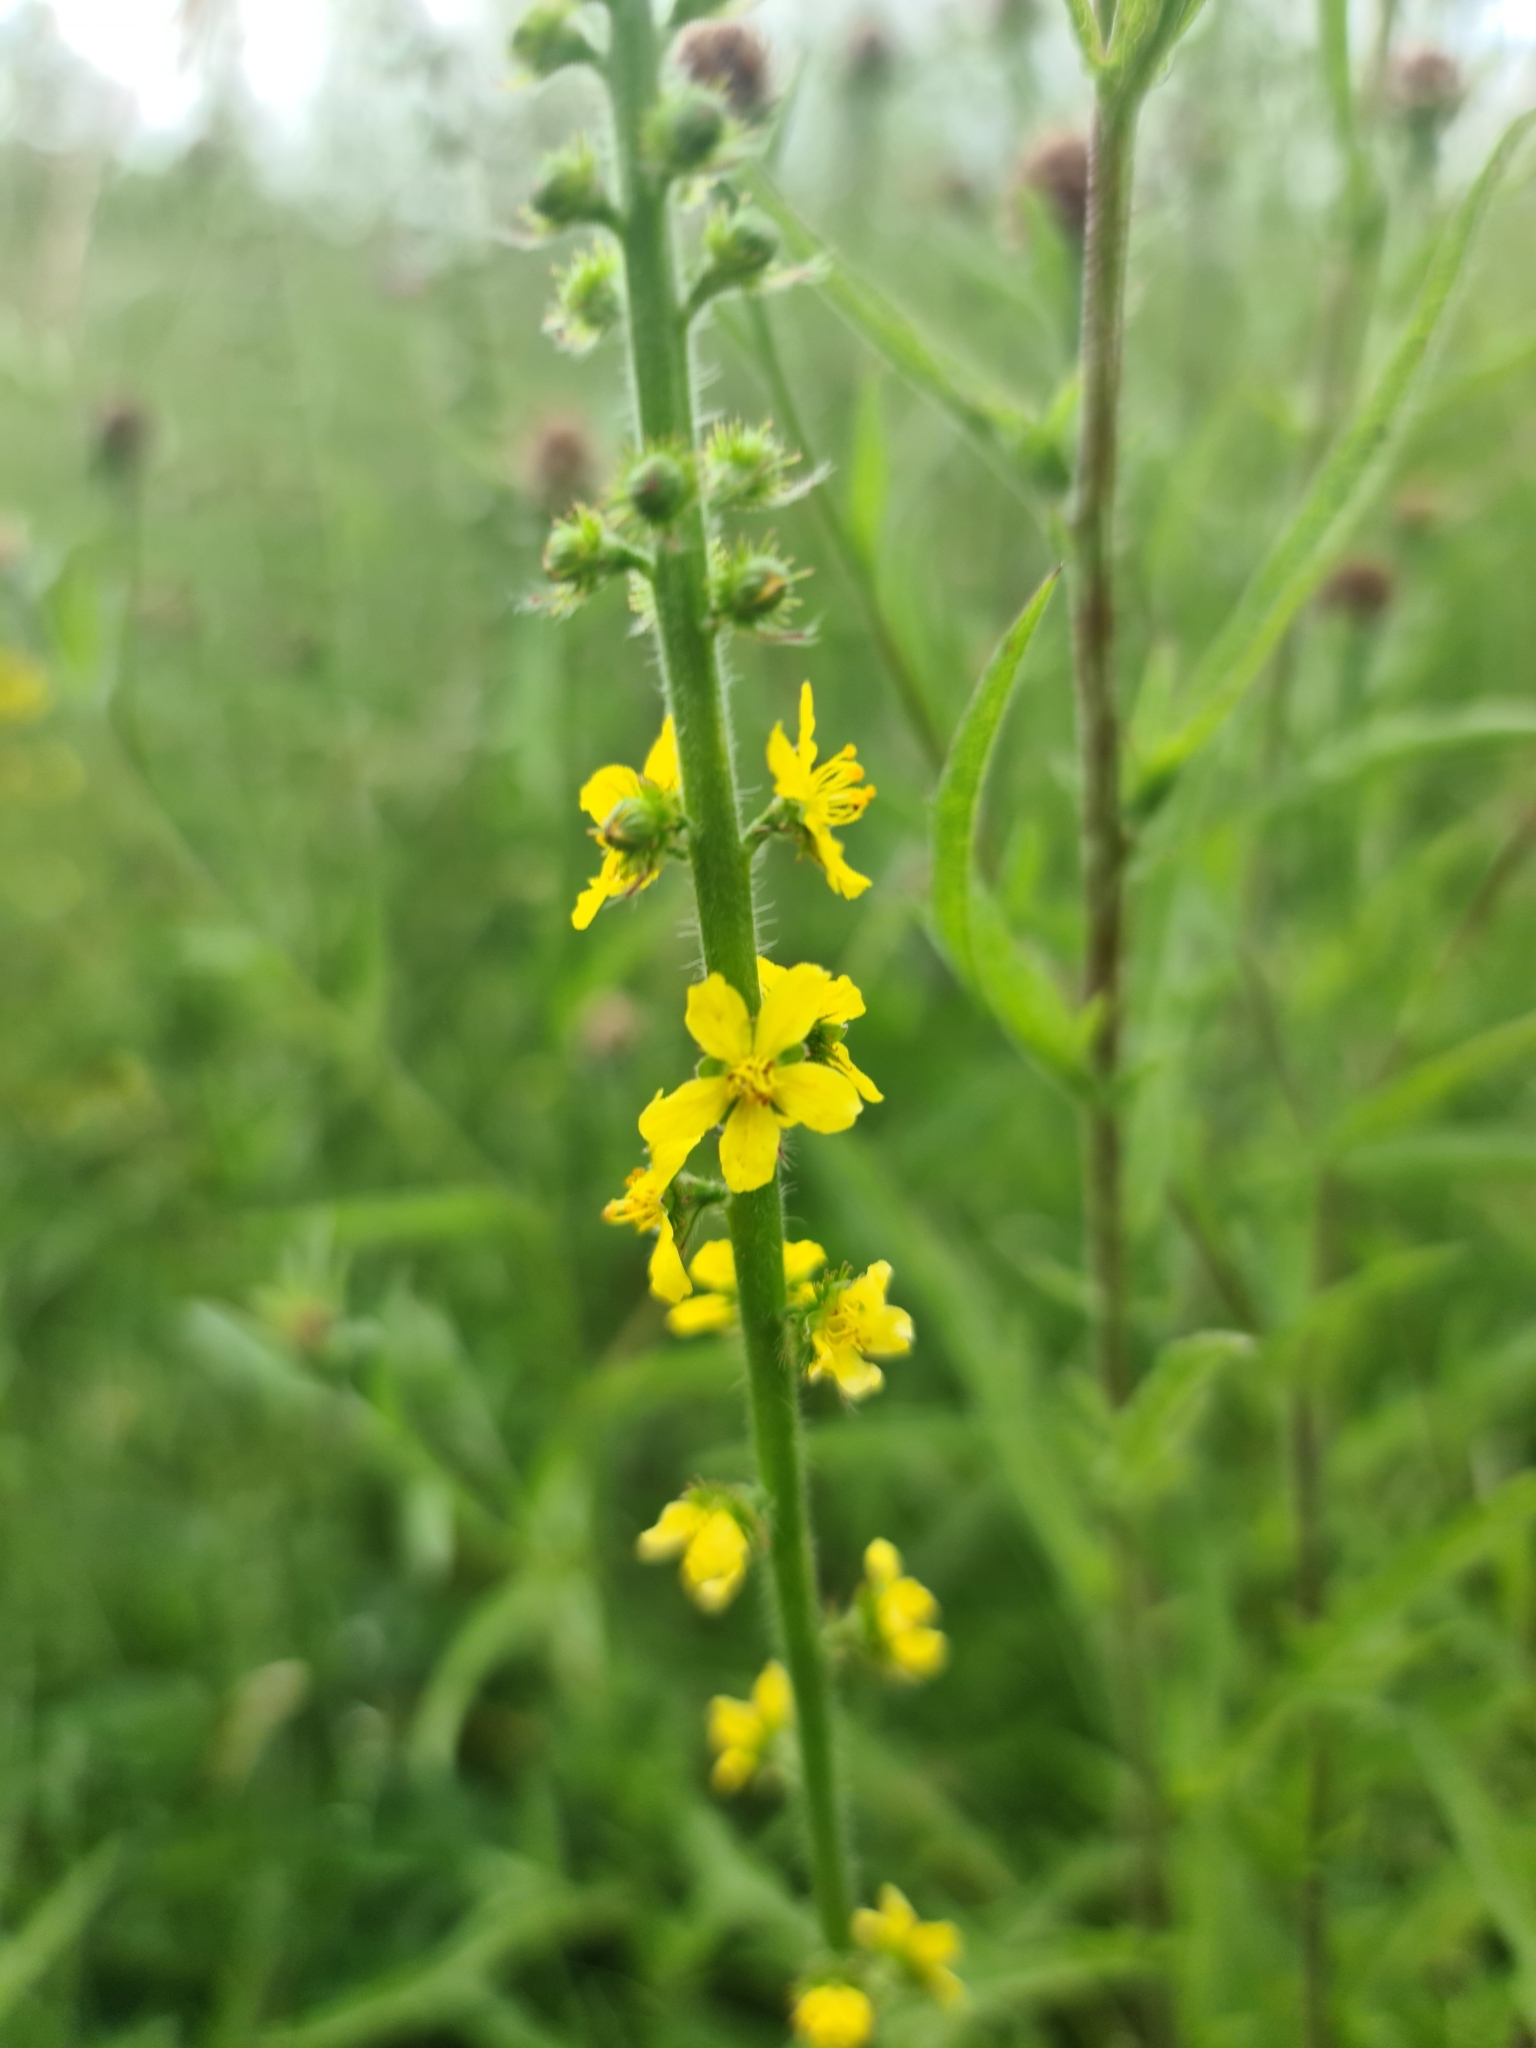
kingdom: Plantae
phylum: Tracheophyta
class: Magnoliopsida
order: Rosales
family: Rosaceae
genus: Agrimonia
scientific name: Agrimonia eupatoria
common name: Agrimony
